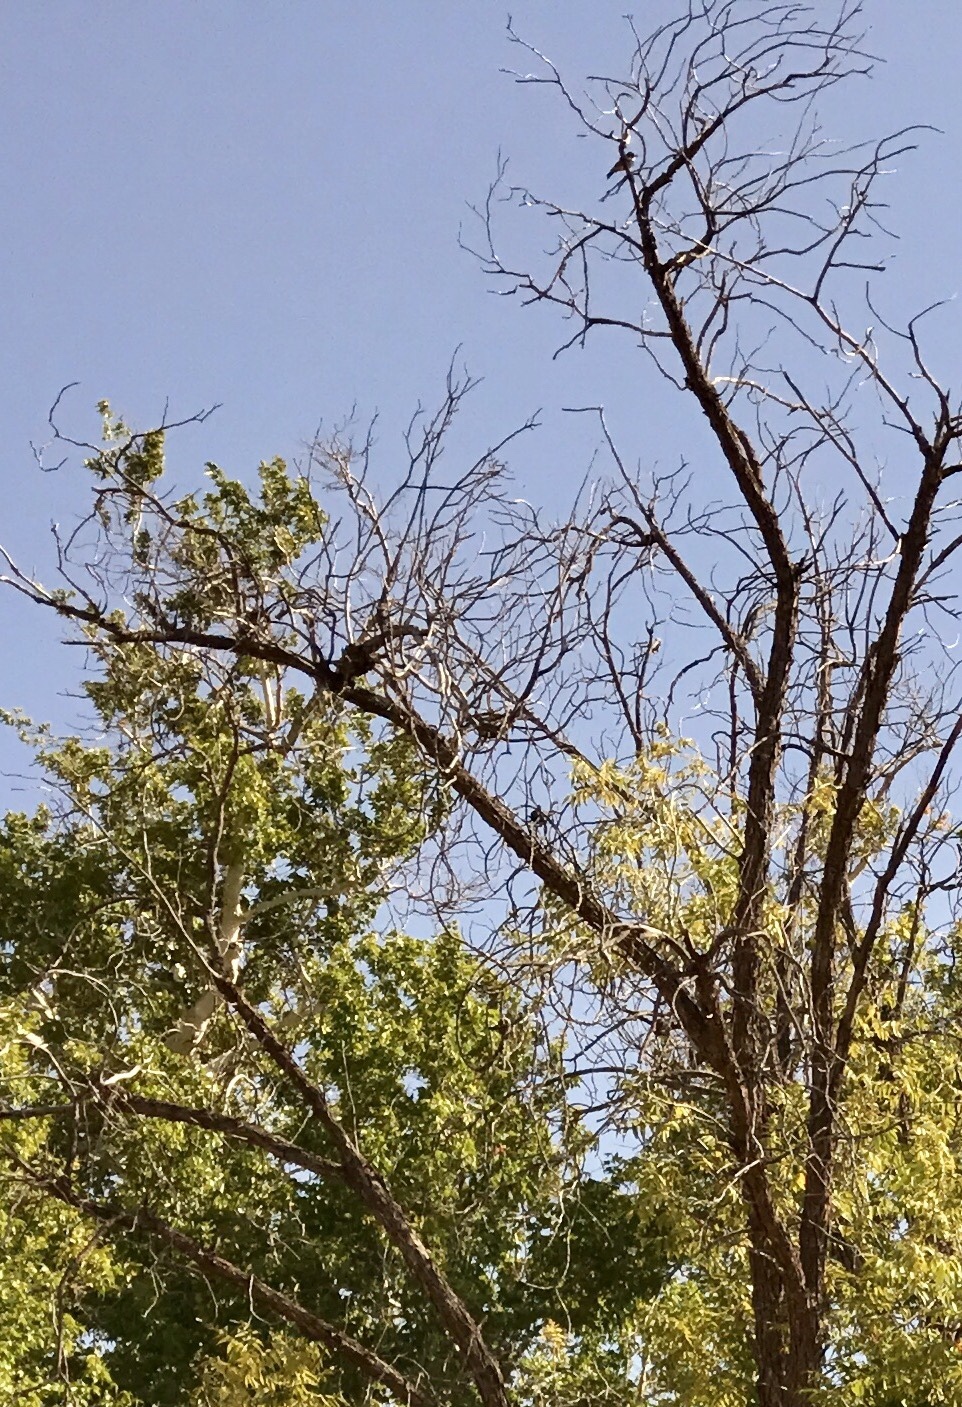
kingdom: Plantae
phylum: Tracheophyta
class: Magnoliopsida
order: Fagales
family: Juglandaceae
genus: Juglans
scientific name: Juglans major
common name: Arizona walnut
